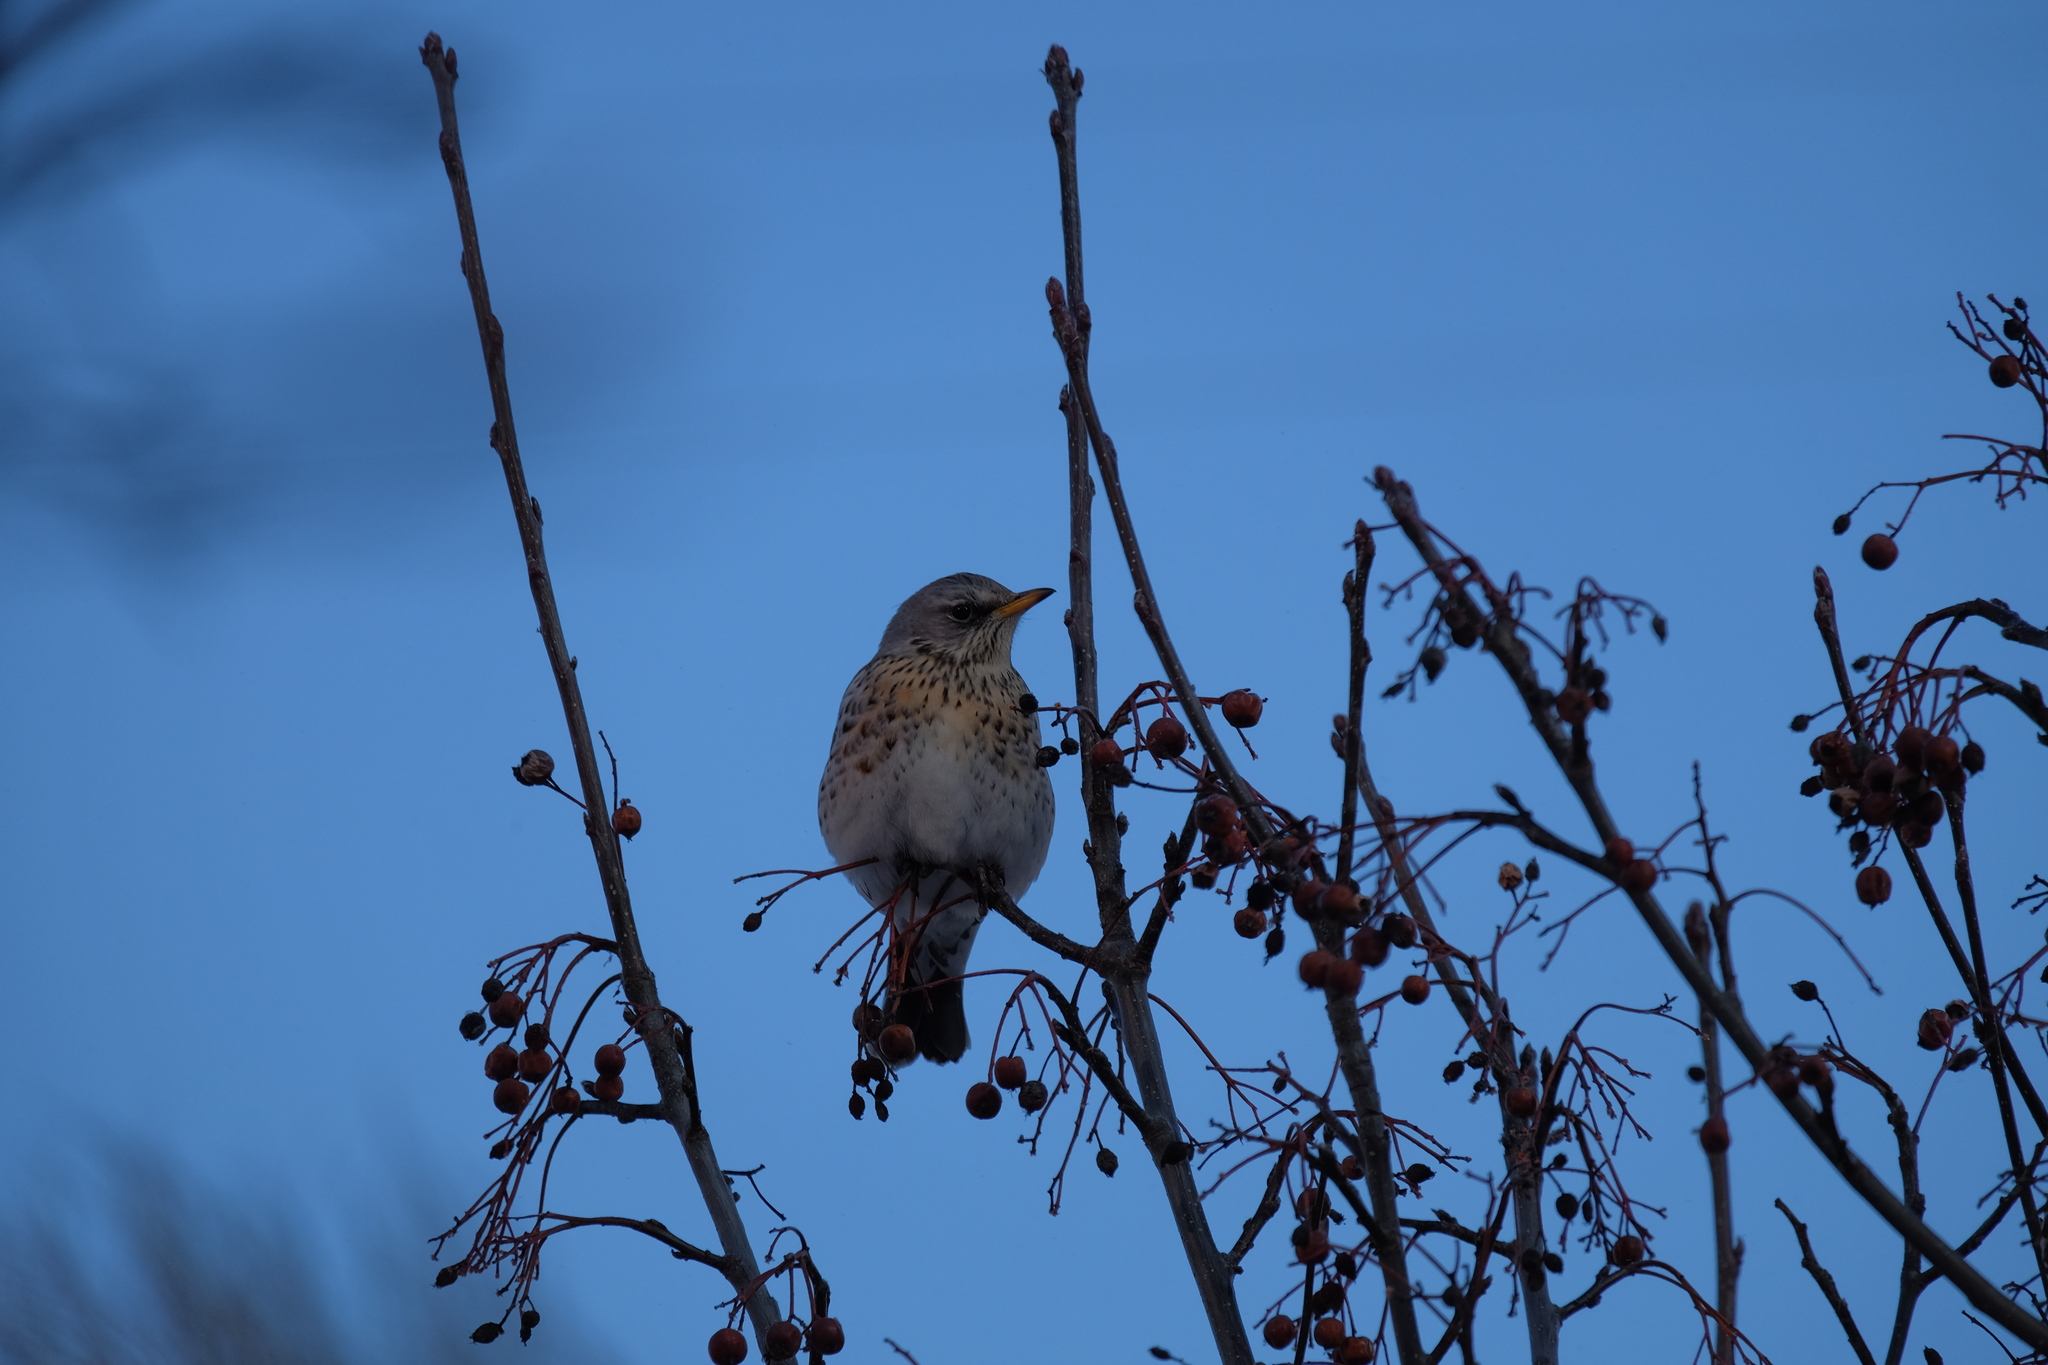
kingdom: Animalia
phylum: Chordata
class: Aves
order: Passeriformes
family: Turdidae
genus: Turdus
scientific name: Turdus pilaris
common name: Fieldfare
